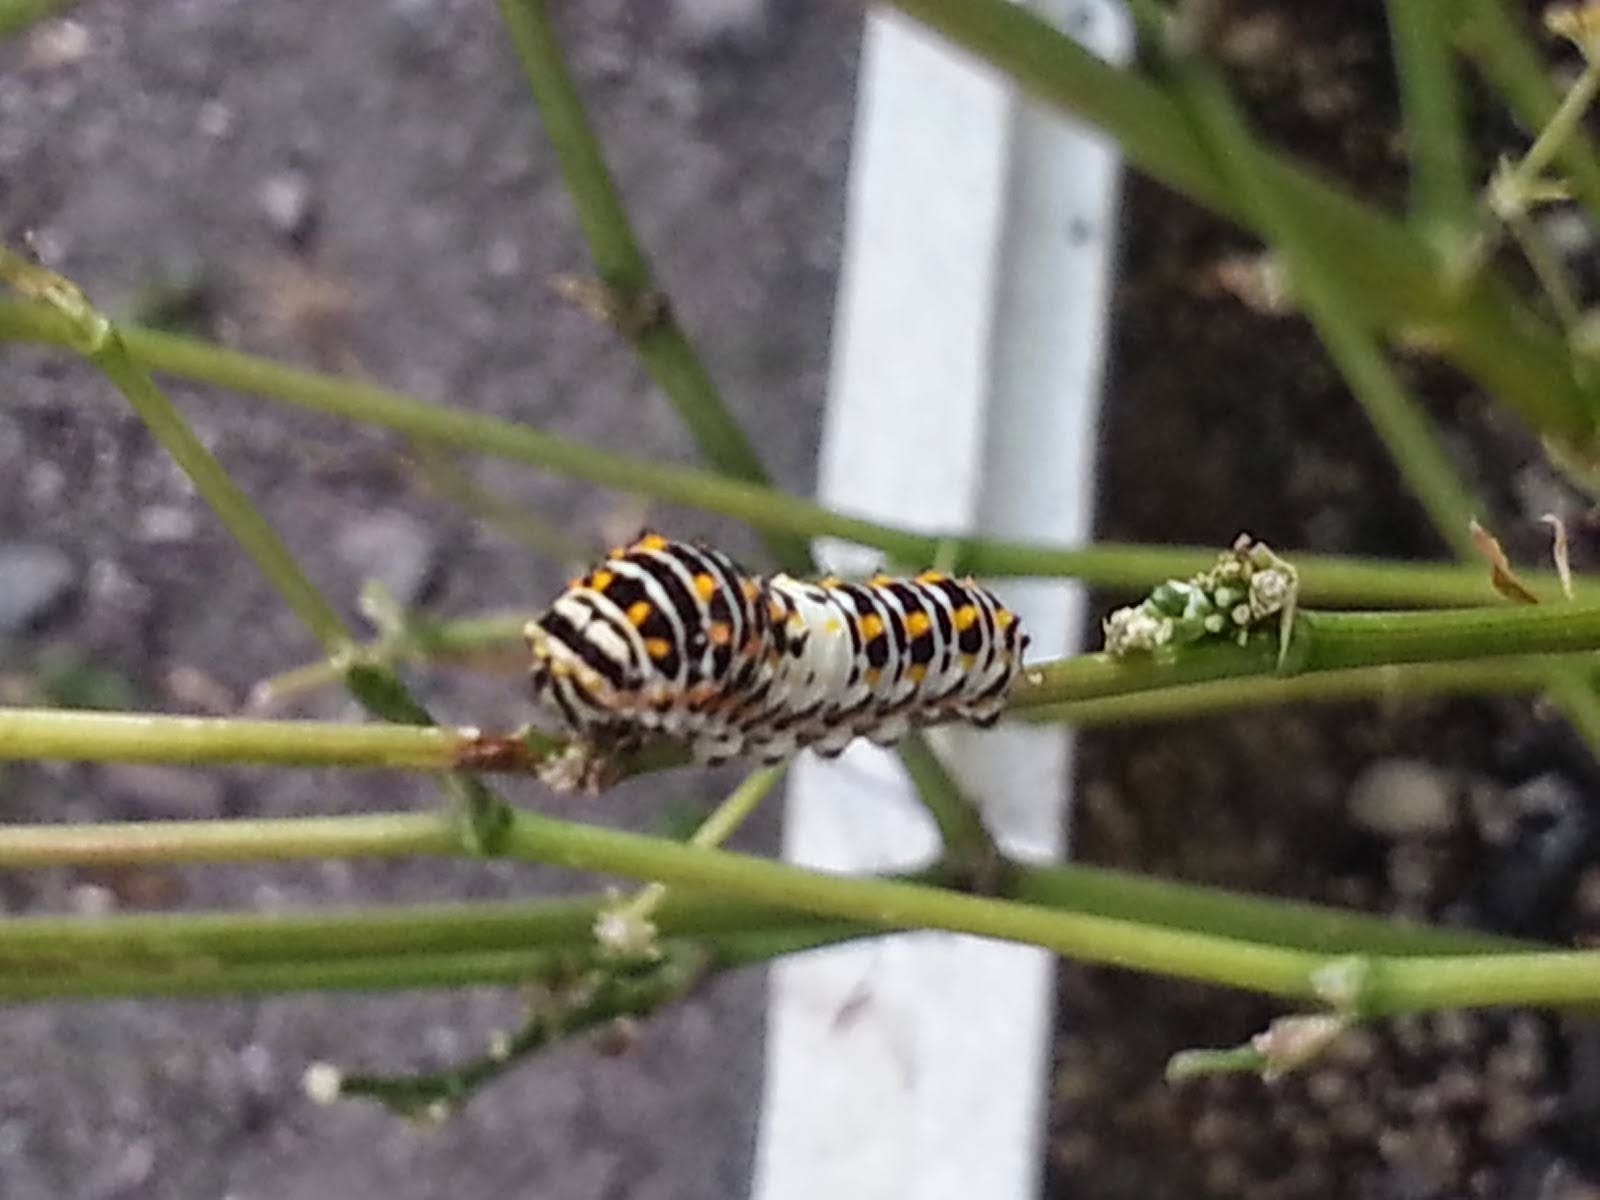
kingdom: Animalia
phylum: Arthropoda
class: Insecta
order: Lepidoptera
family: Papilionidae
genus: Papilio
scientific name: Papilio machaon
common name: Swallowtail
